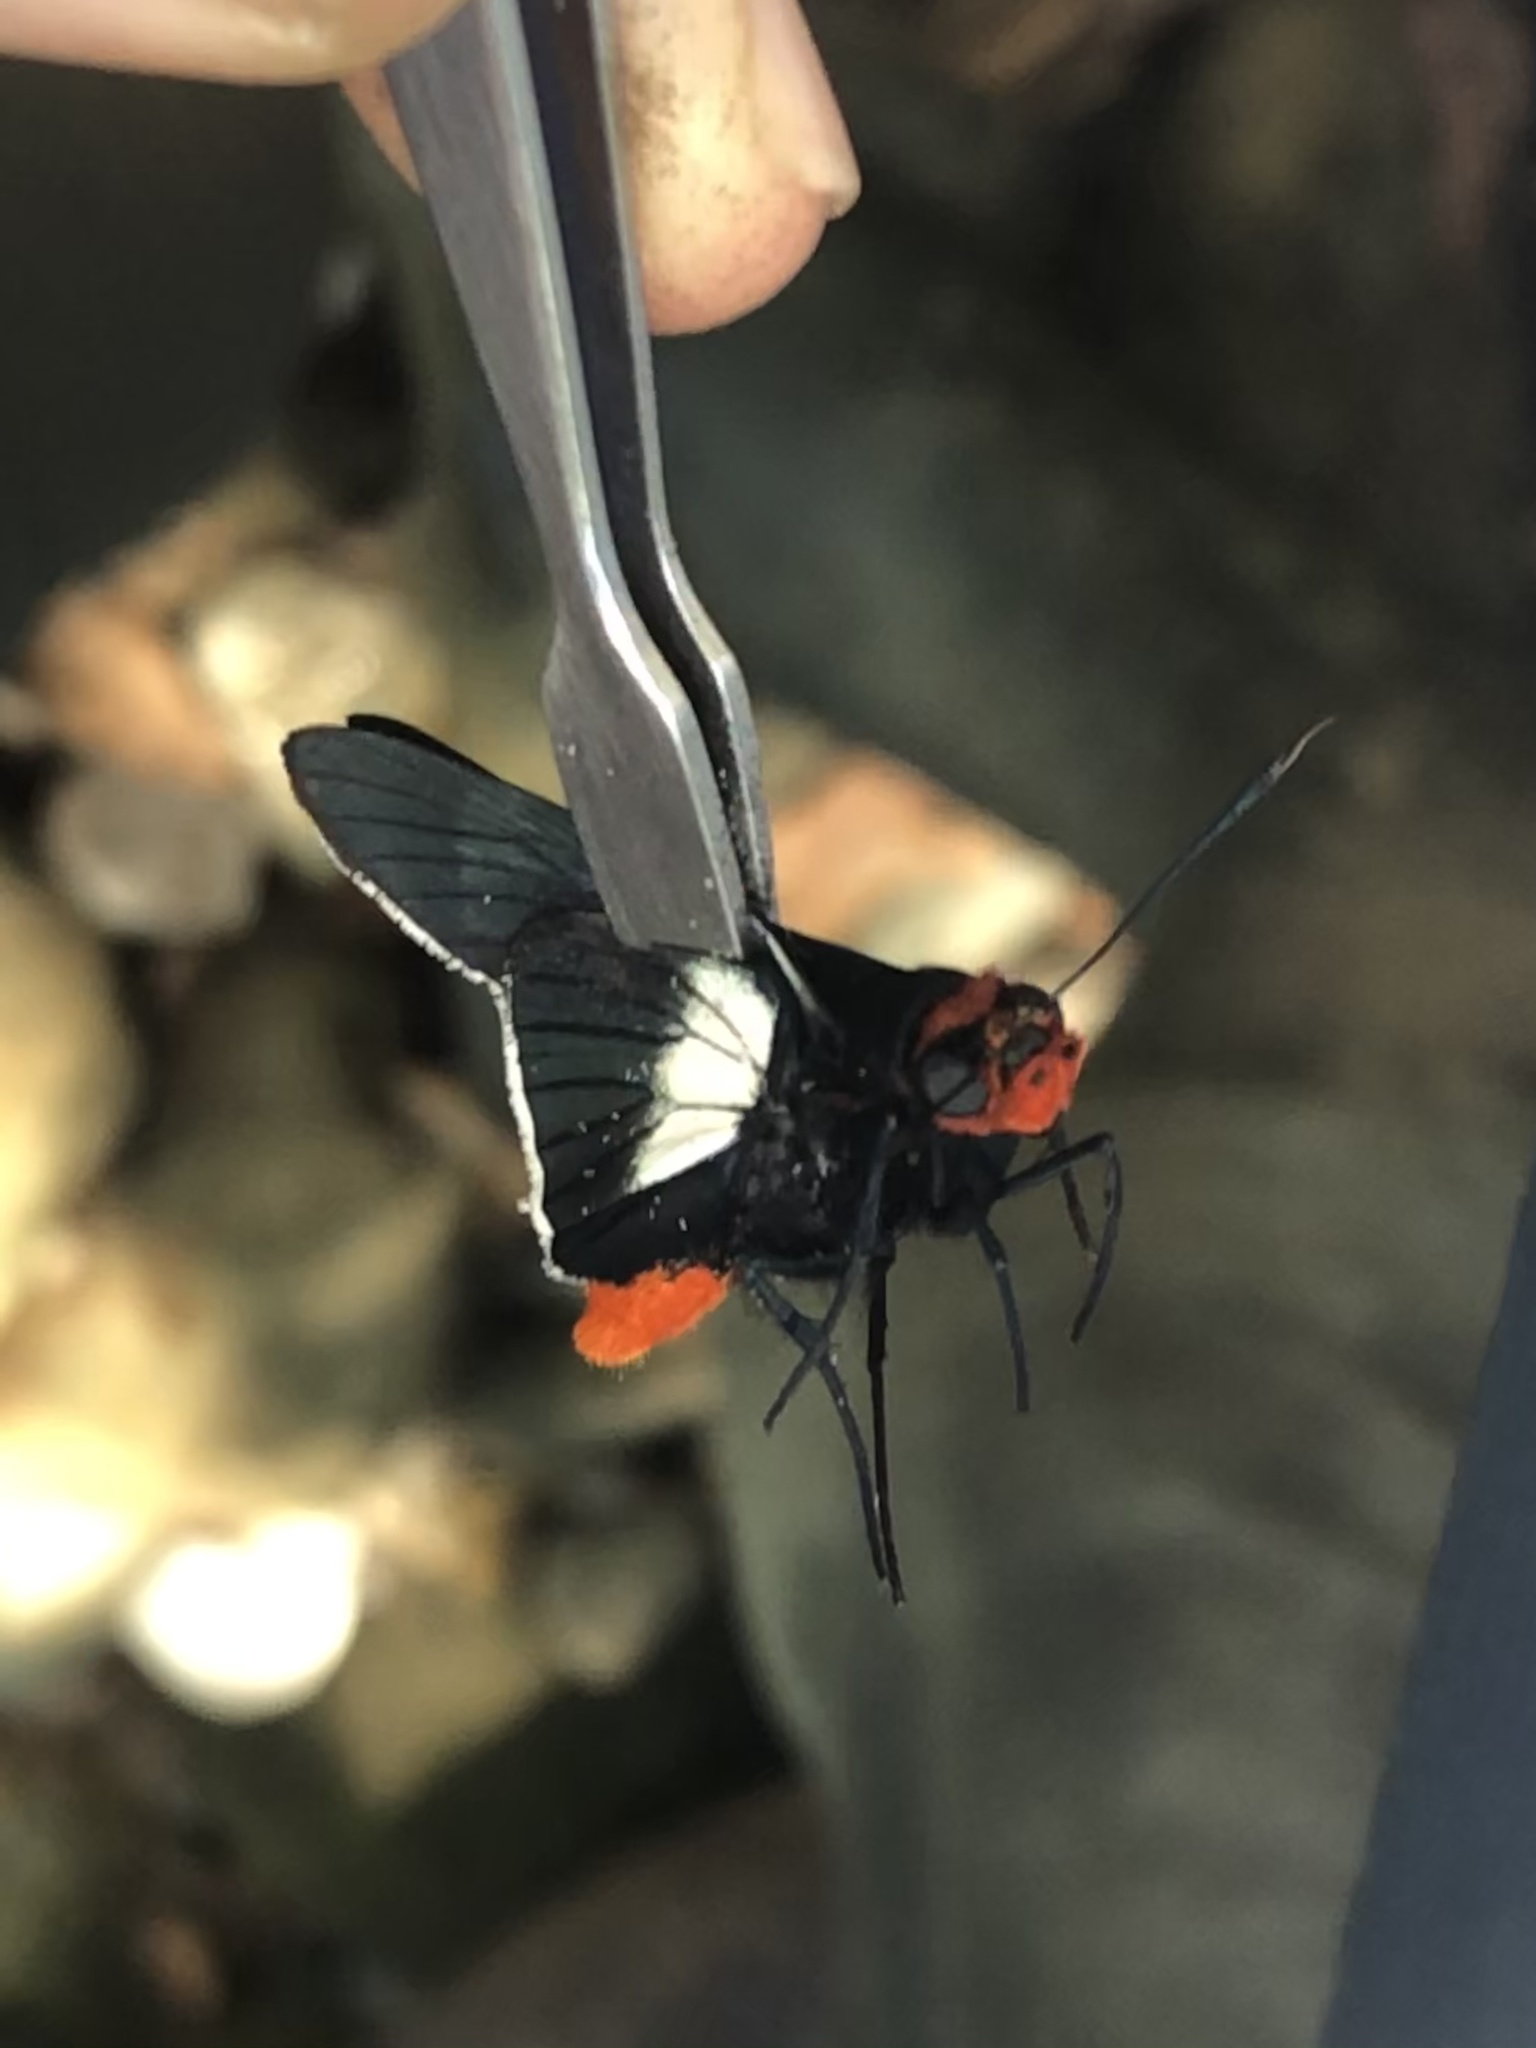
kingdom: Animalia
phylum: Arthropoda
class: Insecta
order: Lepidoptera
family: Hesperiidae
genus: Pyrrhopygopsis
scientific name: Pyrrhopygopsis socrates
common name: Socrates skipper
